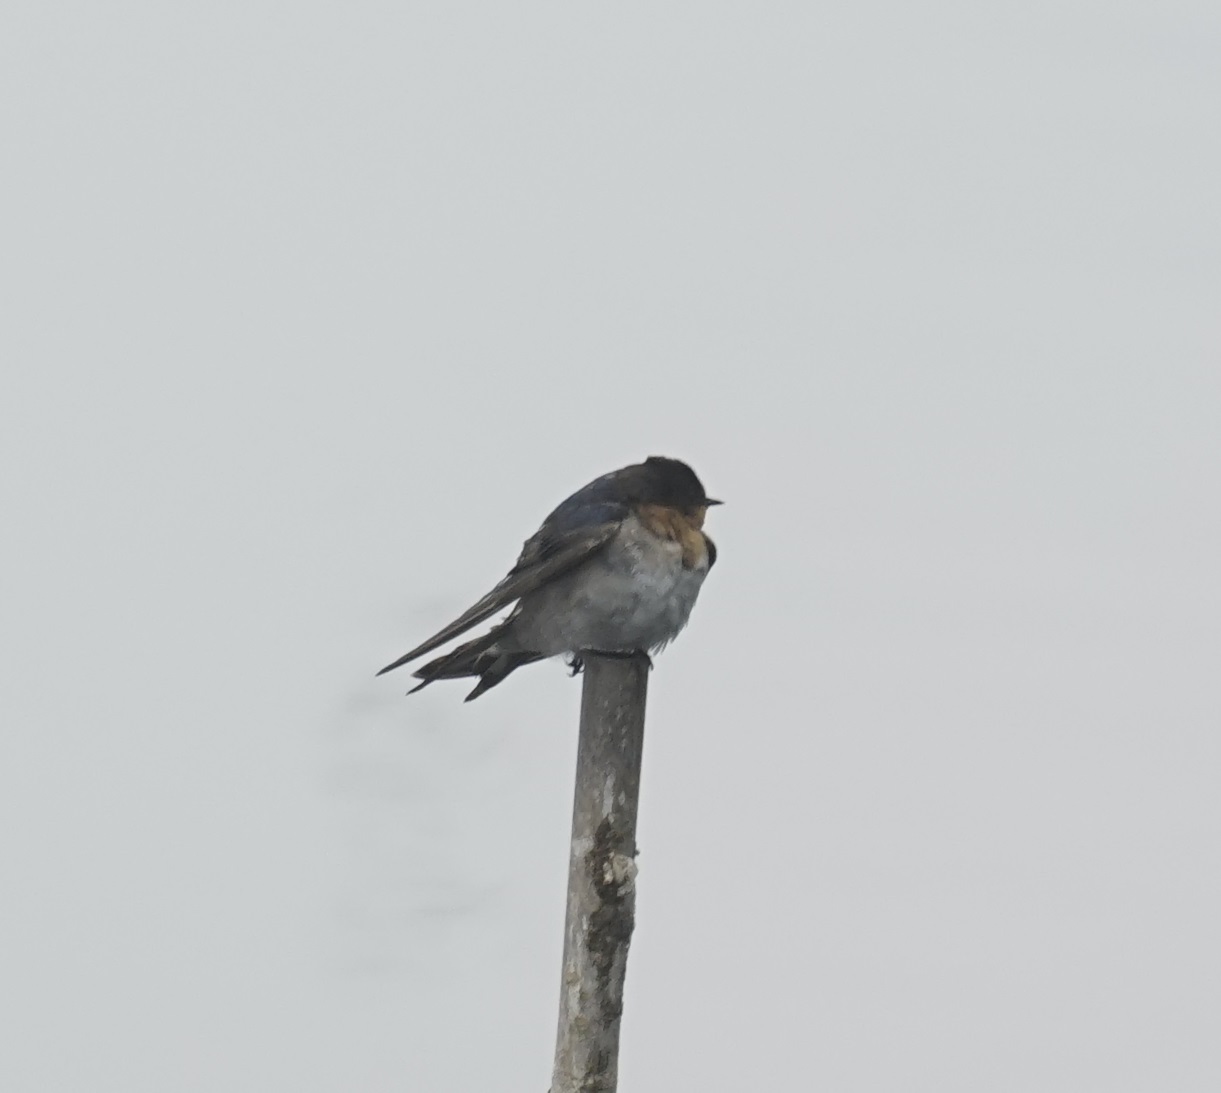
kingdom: Animalia
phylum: Chordata
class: Aves
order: Passeriformes
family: Hirundinidae
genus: Hirundo
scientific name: Hirundo neoxena
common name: Welcome swallow
